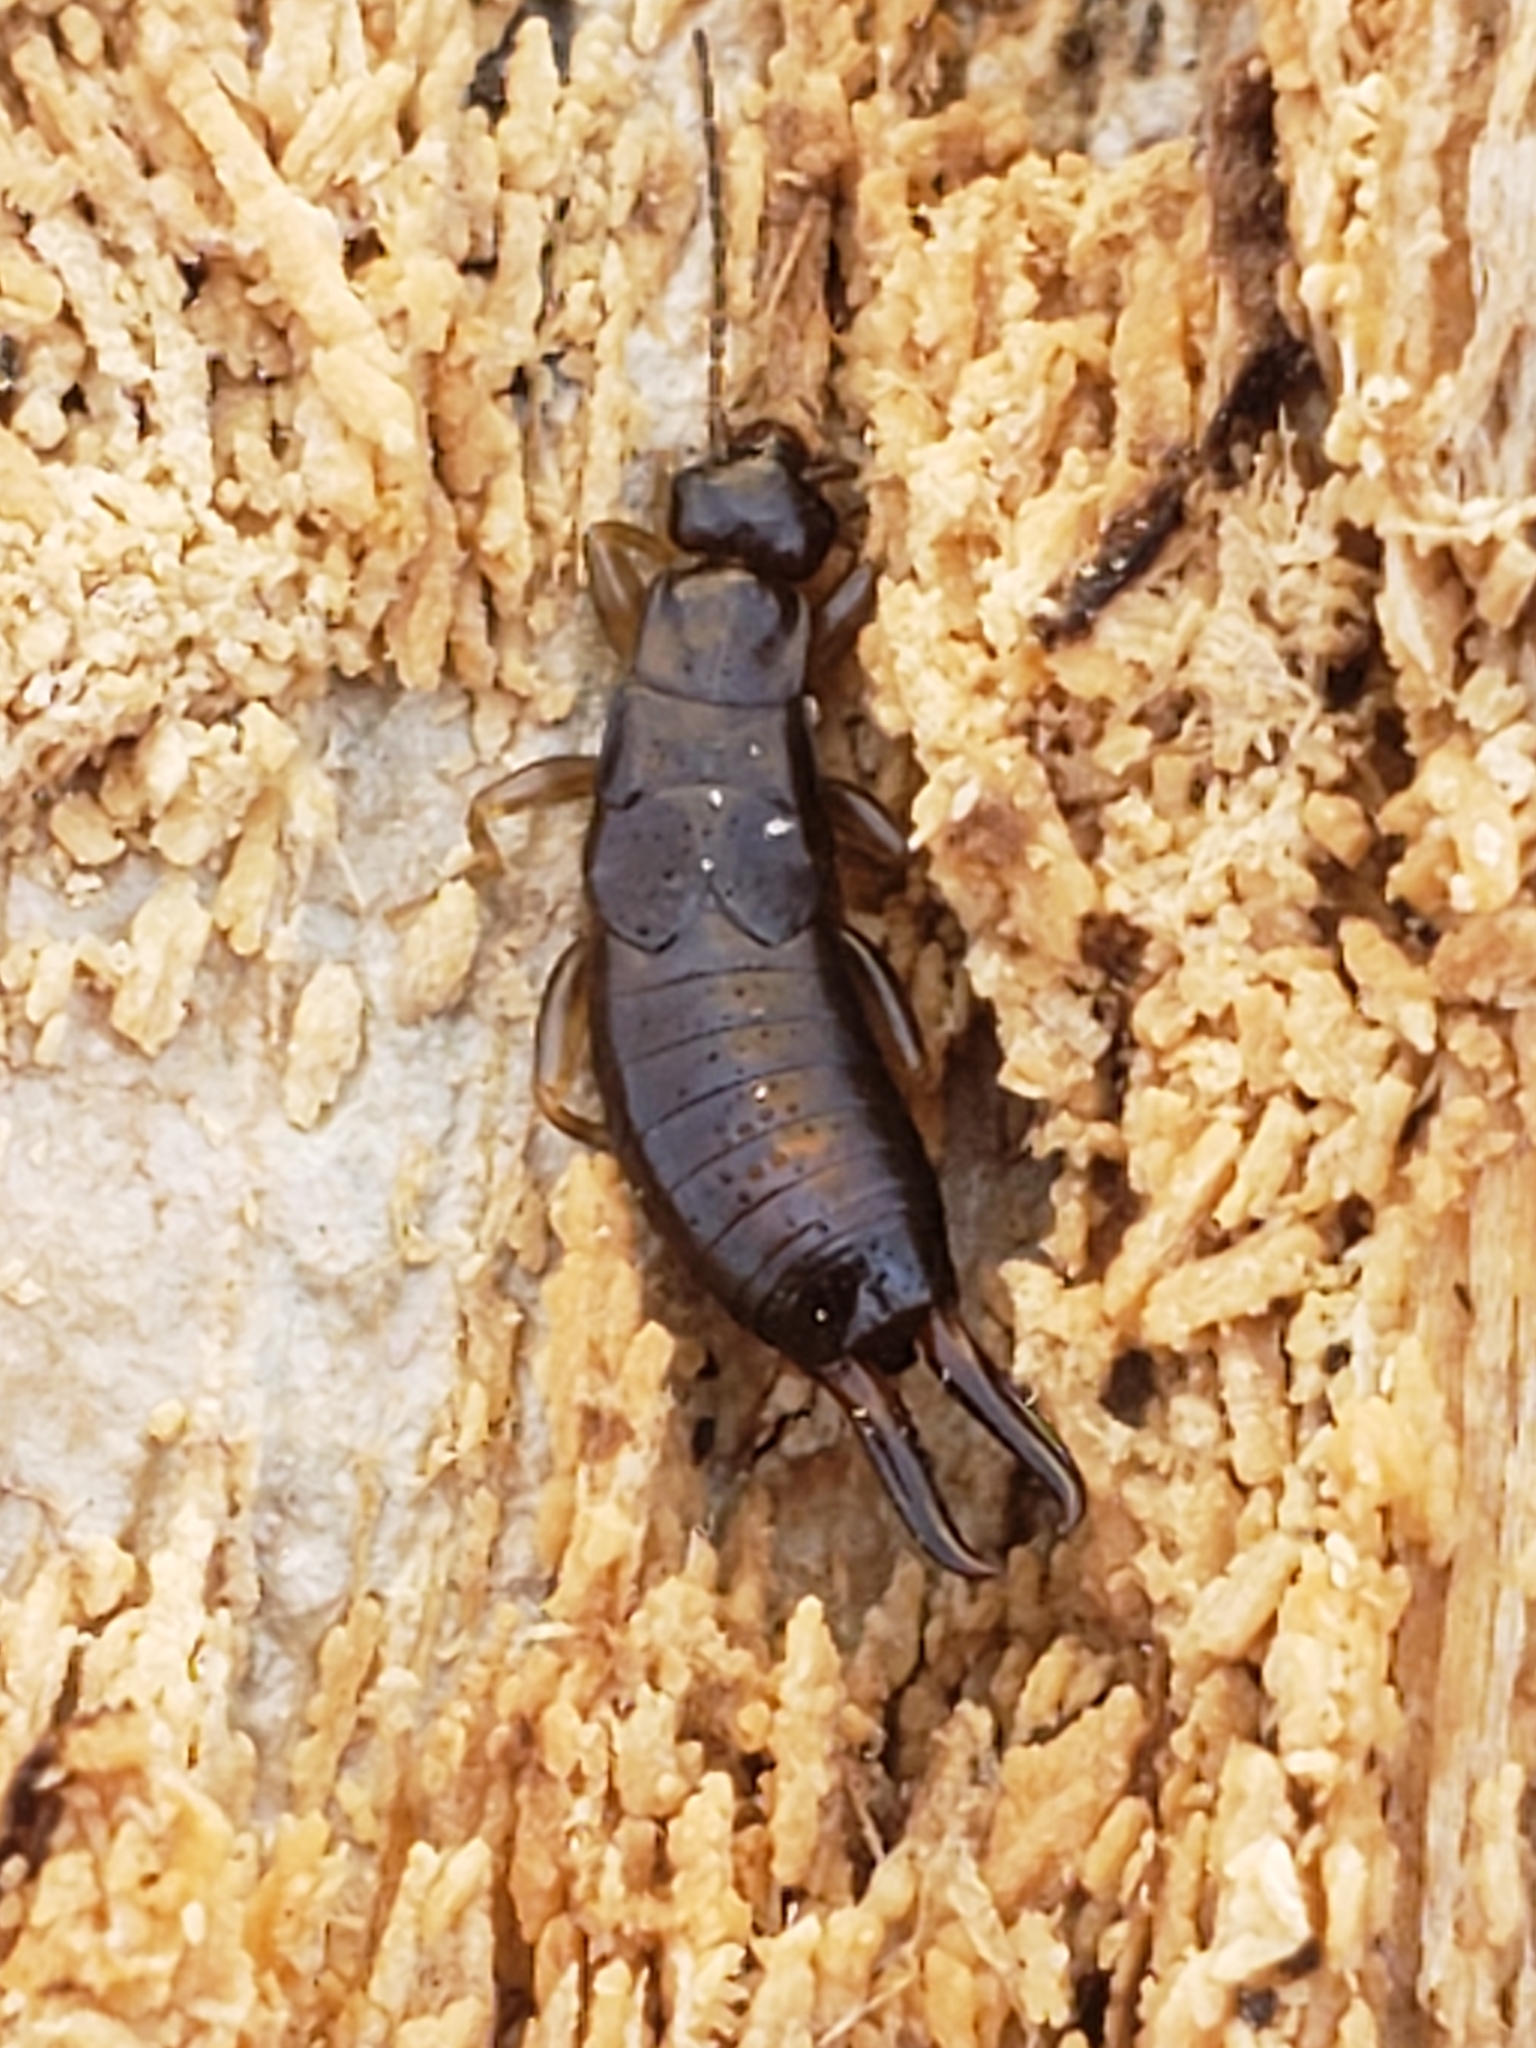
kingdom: Animalia
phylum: Arthropoda
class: Insecta
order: Dermaptera
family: Spongiphoridae
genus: Vostox
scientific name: Vostox brunneipennis
